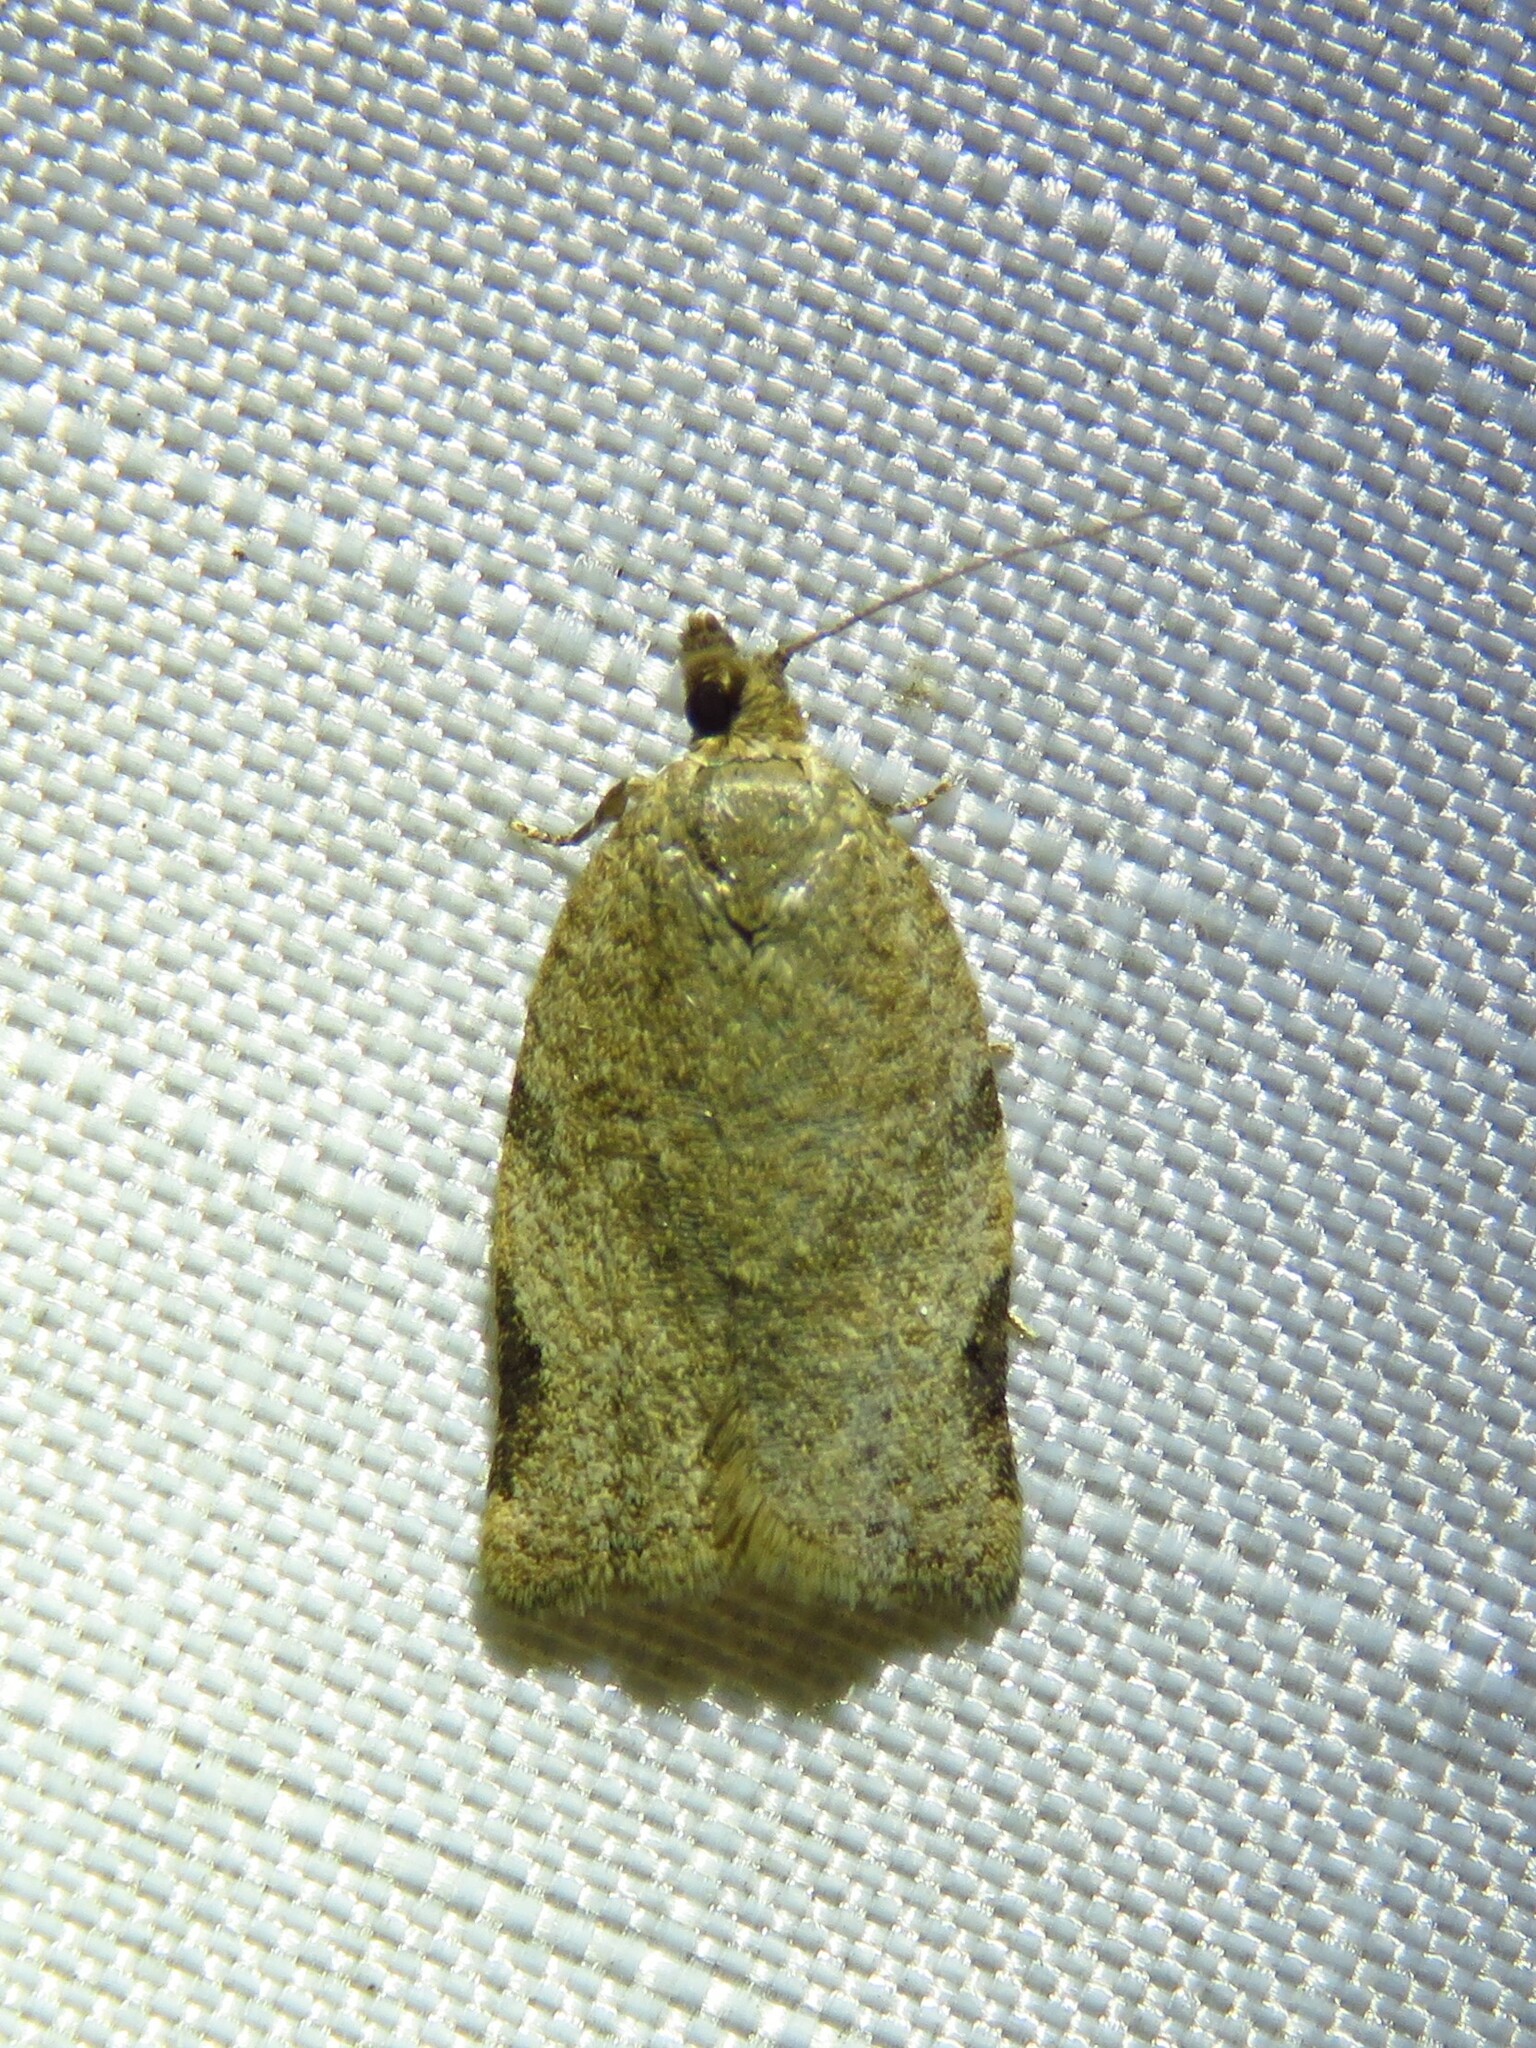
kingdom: Animalia
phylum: Arthropoda
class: Insecta
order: Lepidoptera
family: Tortricidae
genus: Clepsis
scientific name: Clepsis virescana
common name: Greenish apple moth
